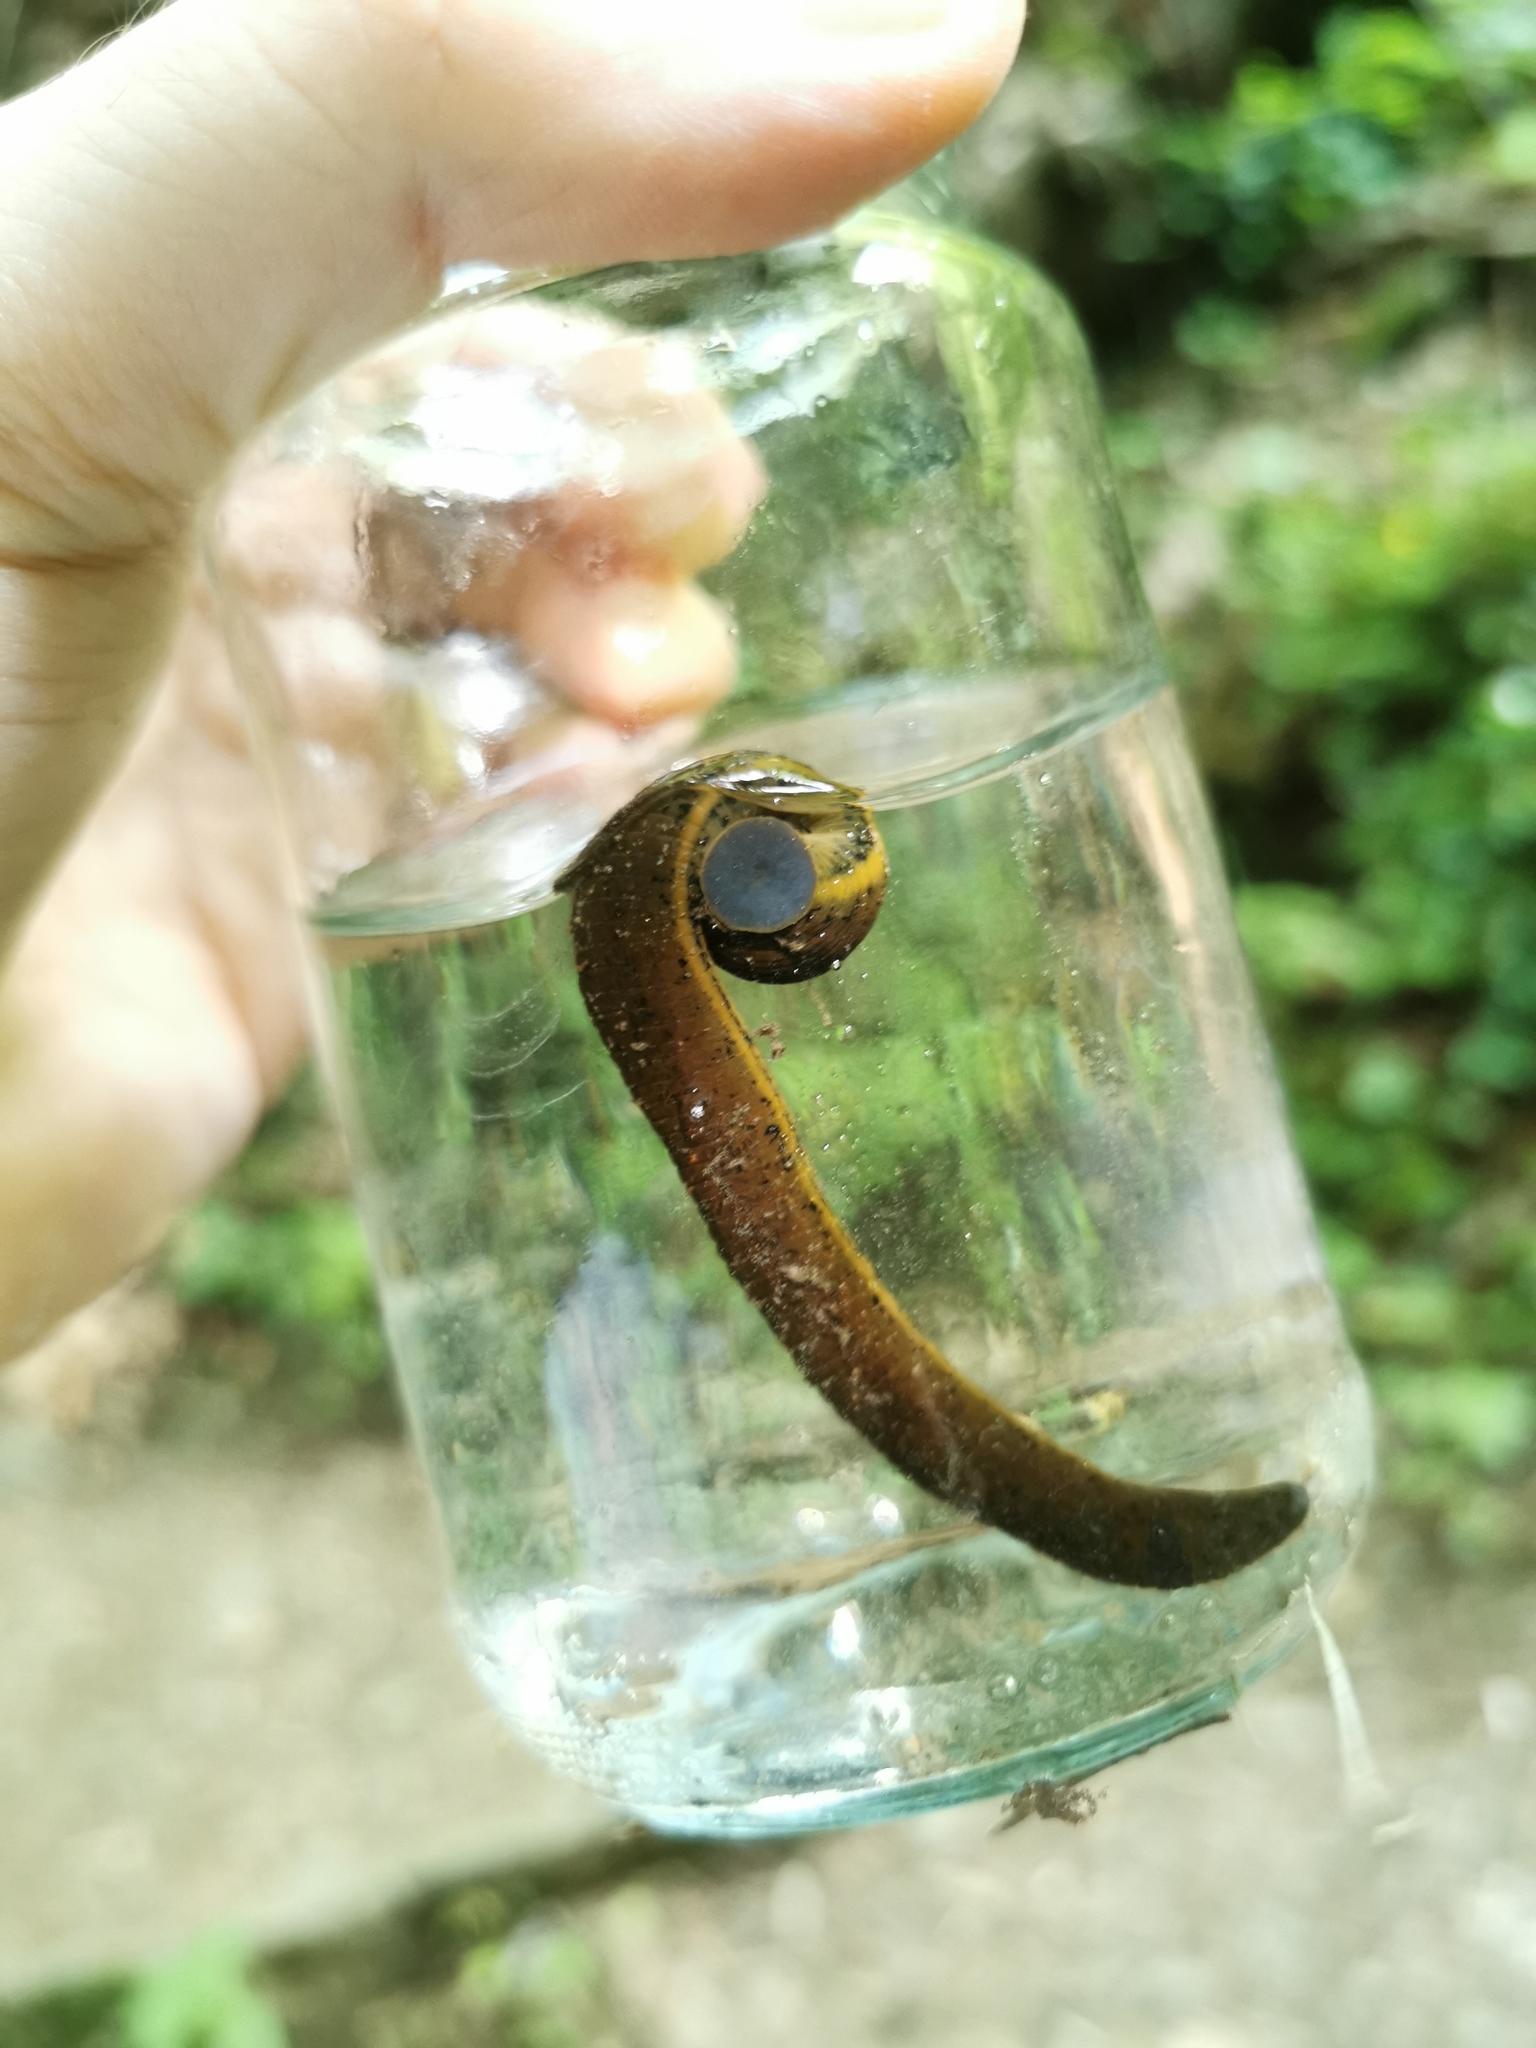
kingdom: Animalia
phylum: Annelida
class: Clitellata
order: Arhynchobdellida
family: Haemopidae
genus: Haemopis
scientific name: Haemopis sanguisuga
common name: Horse leech
